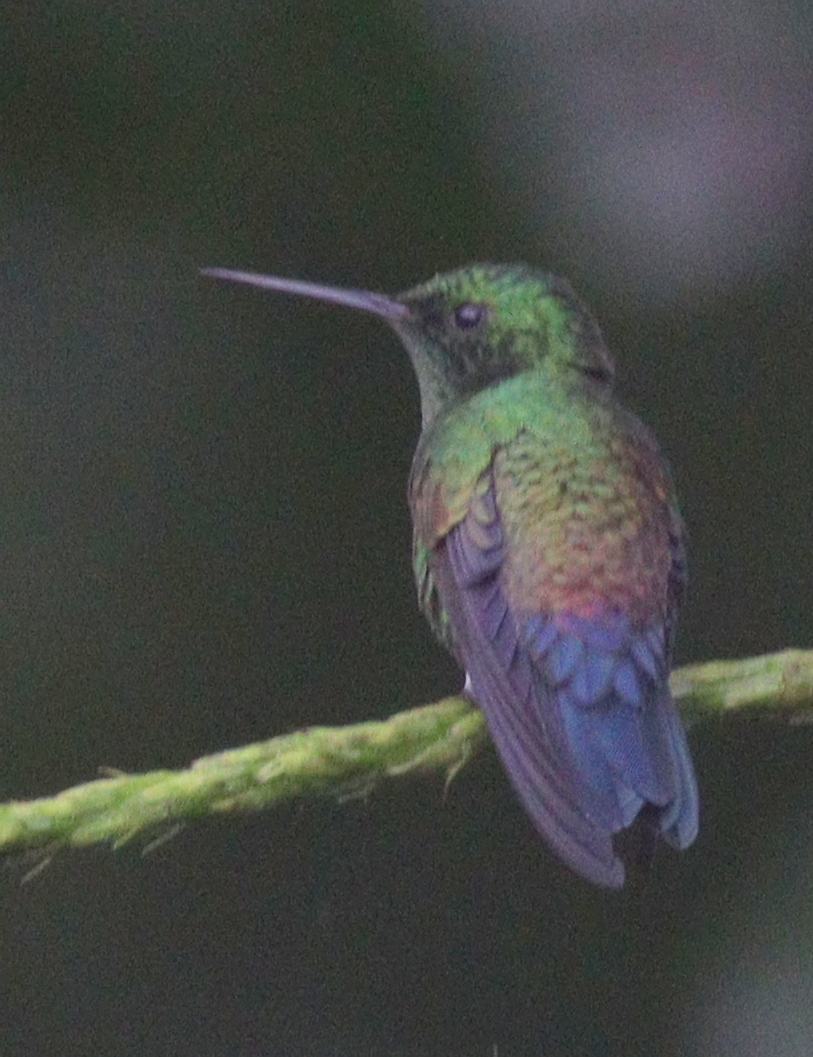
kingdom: Animalia
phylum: Chordata
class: Aves
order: Apodiformes
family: Trochilidae
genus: Saucerottia
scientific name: Saucerottia hoffmanni
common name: Blue-vented hummingbird
